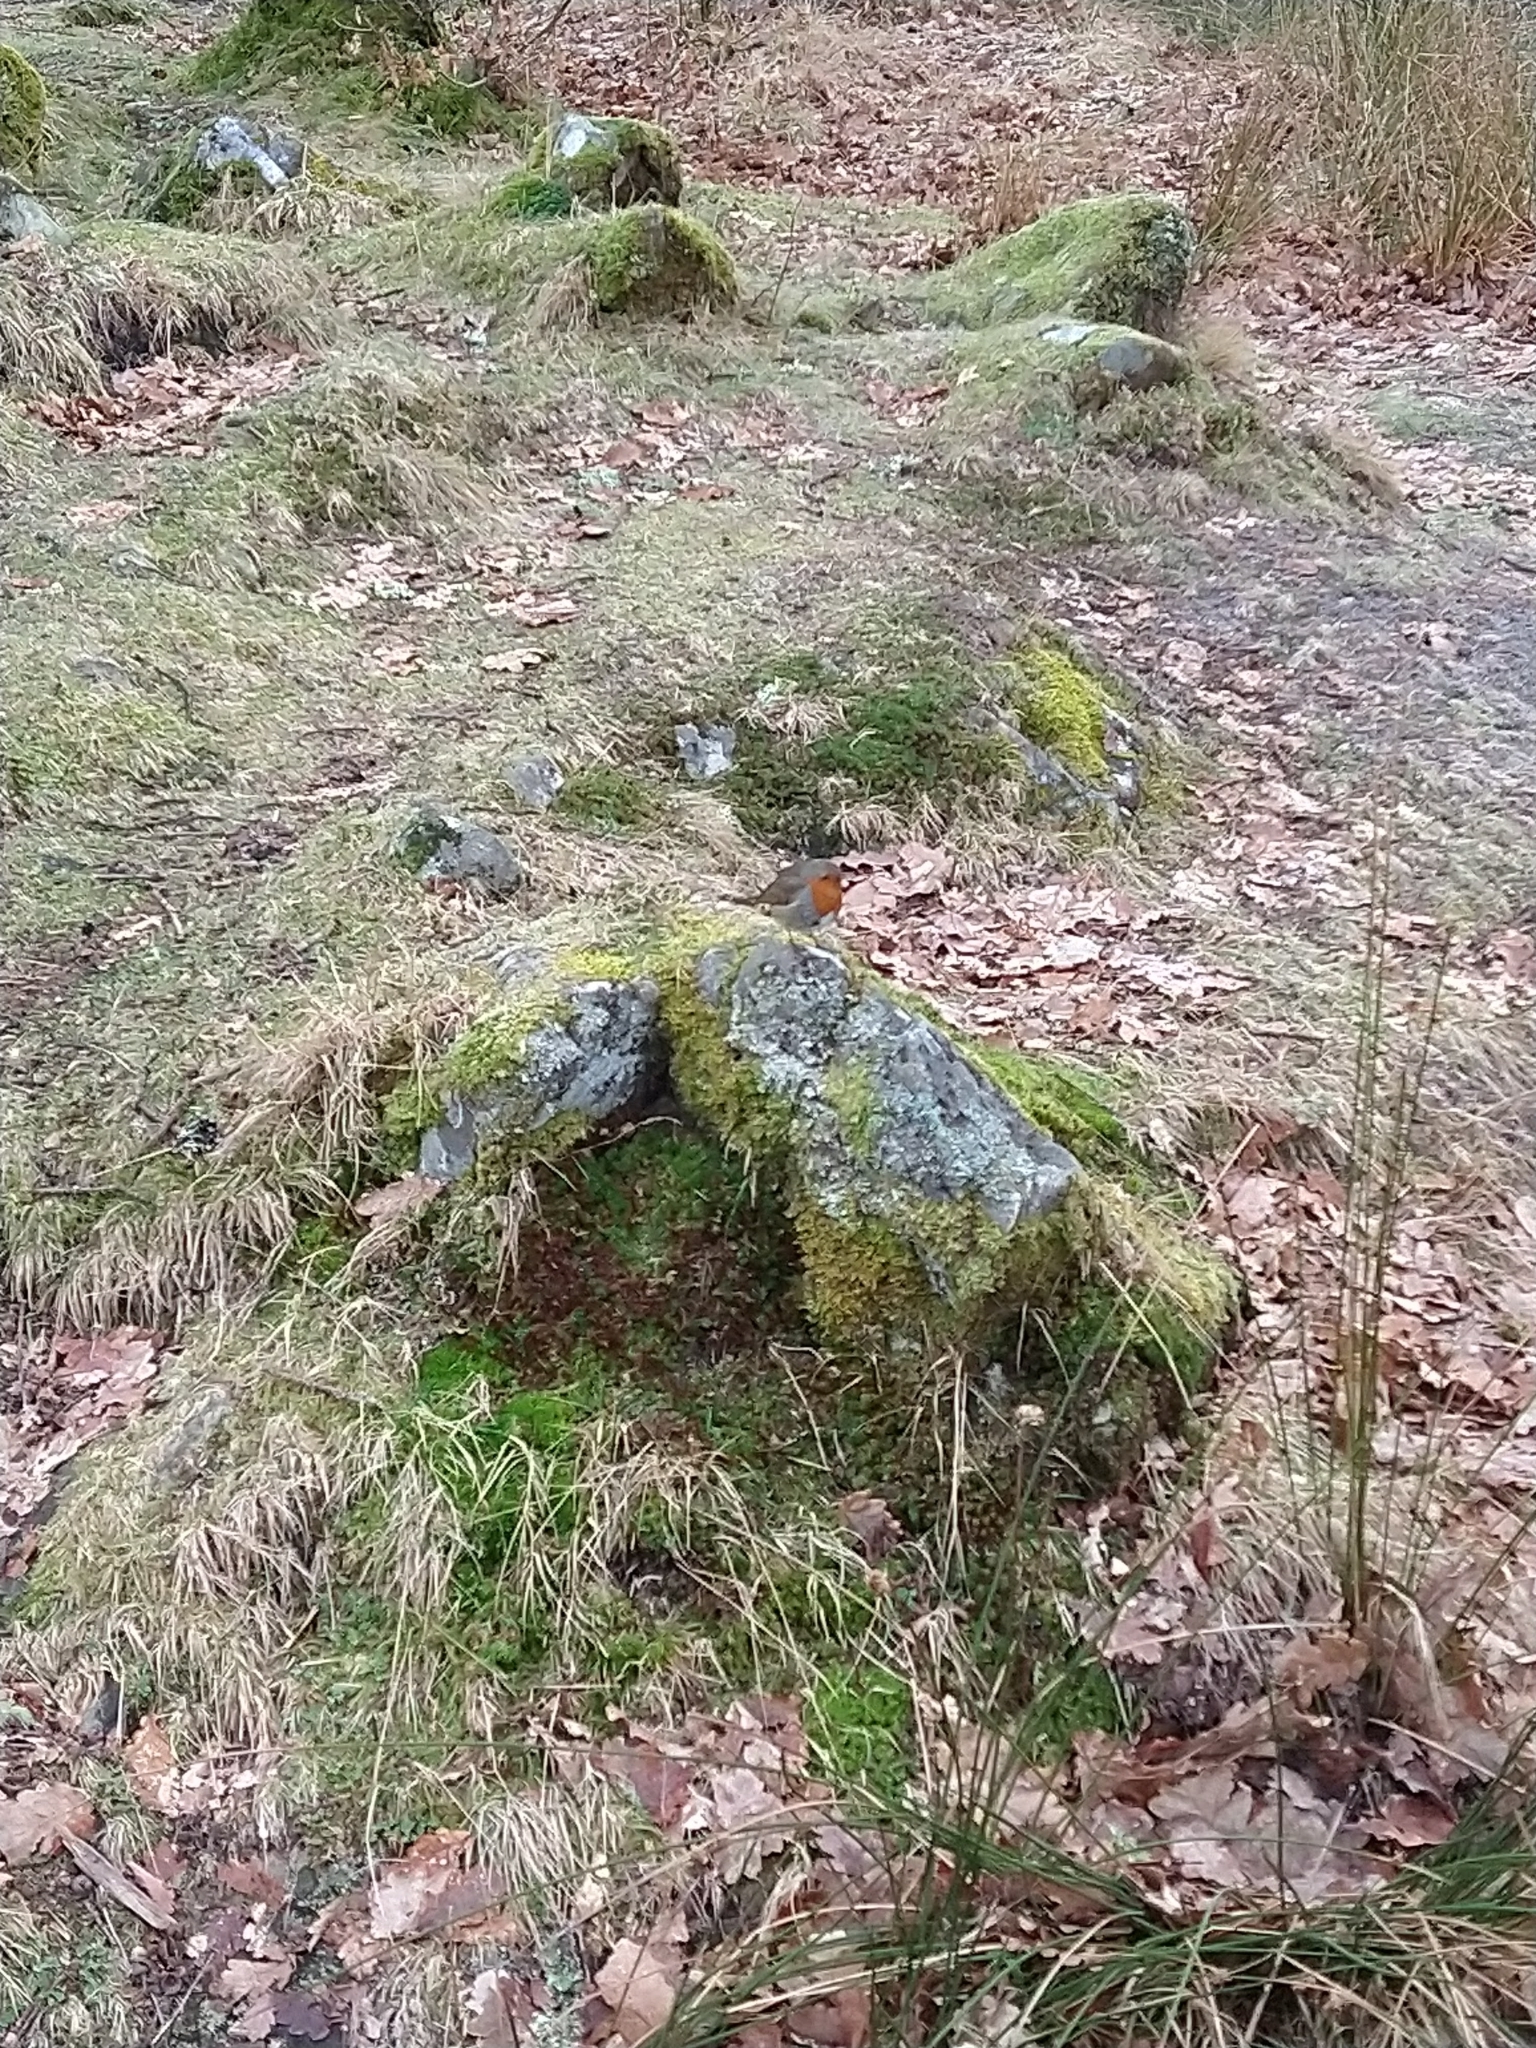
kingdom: Animalia
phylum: Chordata
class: Aves
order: Passeriformes
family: Muscicapidae
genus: Erithacus
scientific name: Erithacus rubecula
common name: European robin
